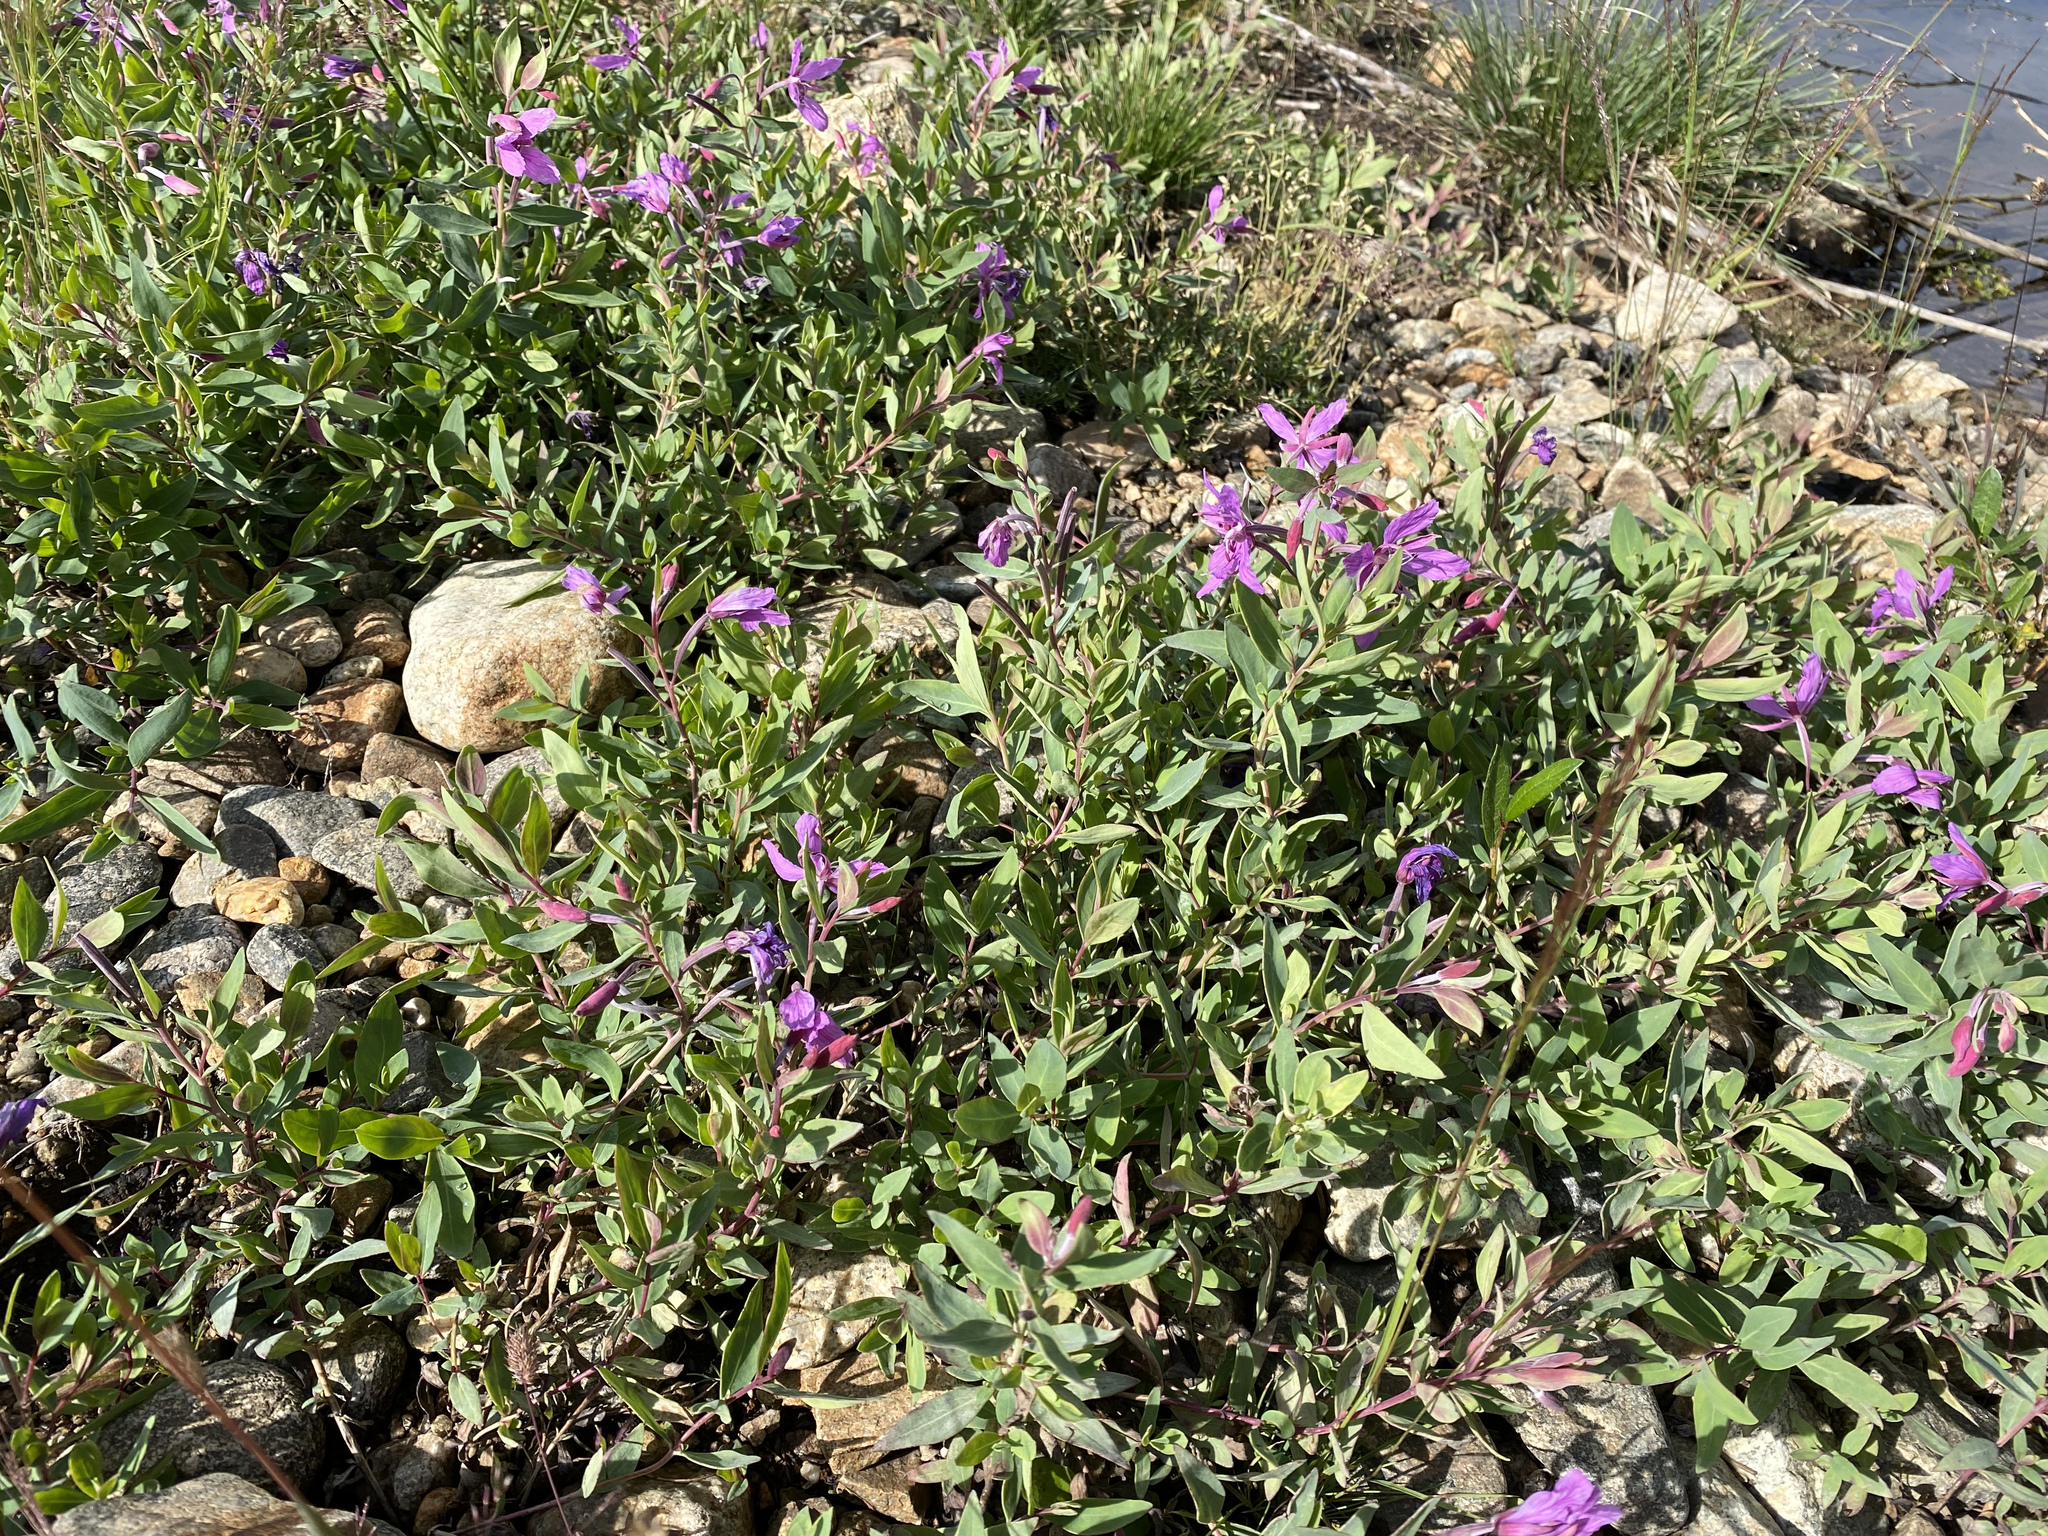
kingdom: Plantae
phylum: Tracheophyta
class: Magnoliopsida
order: Myrtales
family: Onagraceae
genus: Chamaenerion
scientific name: Chamaenerion latifolium
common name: Dwarf fireweed
